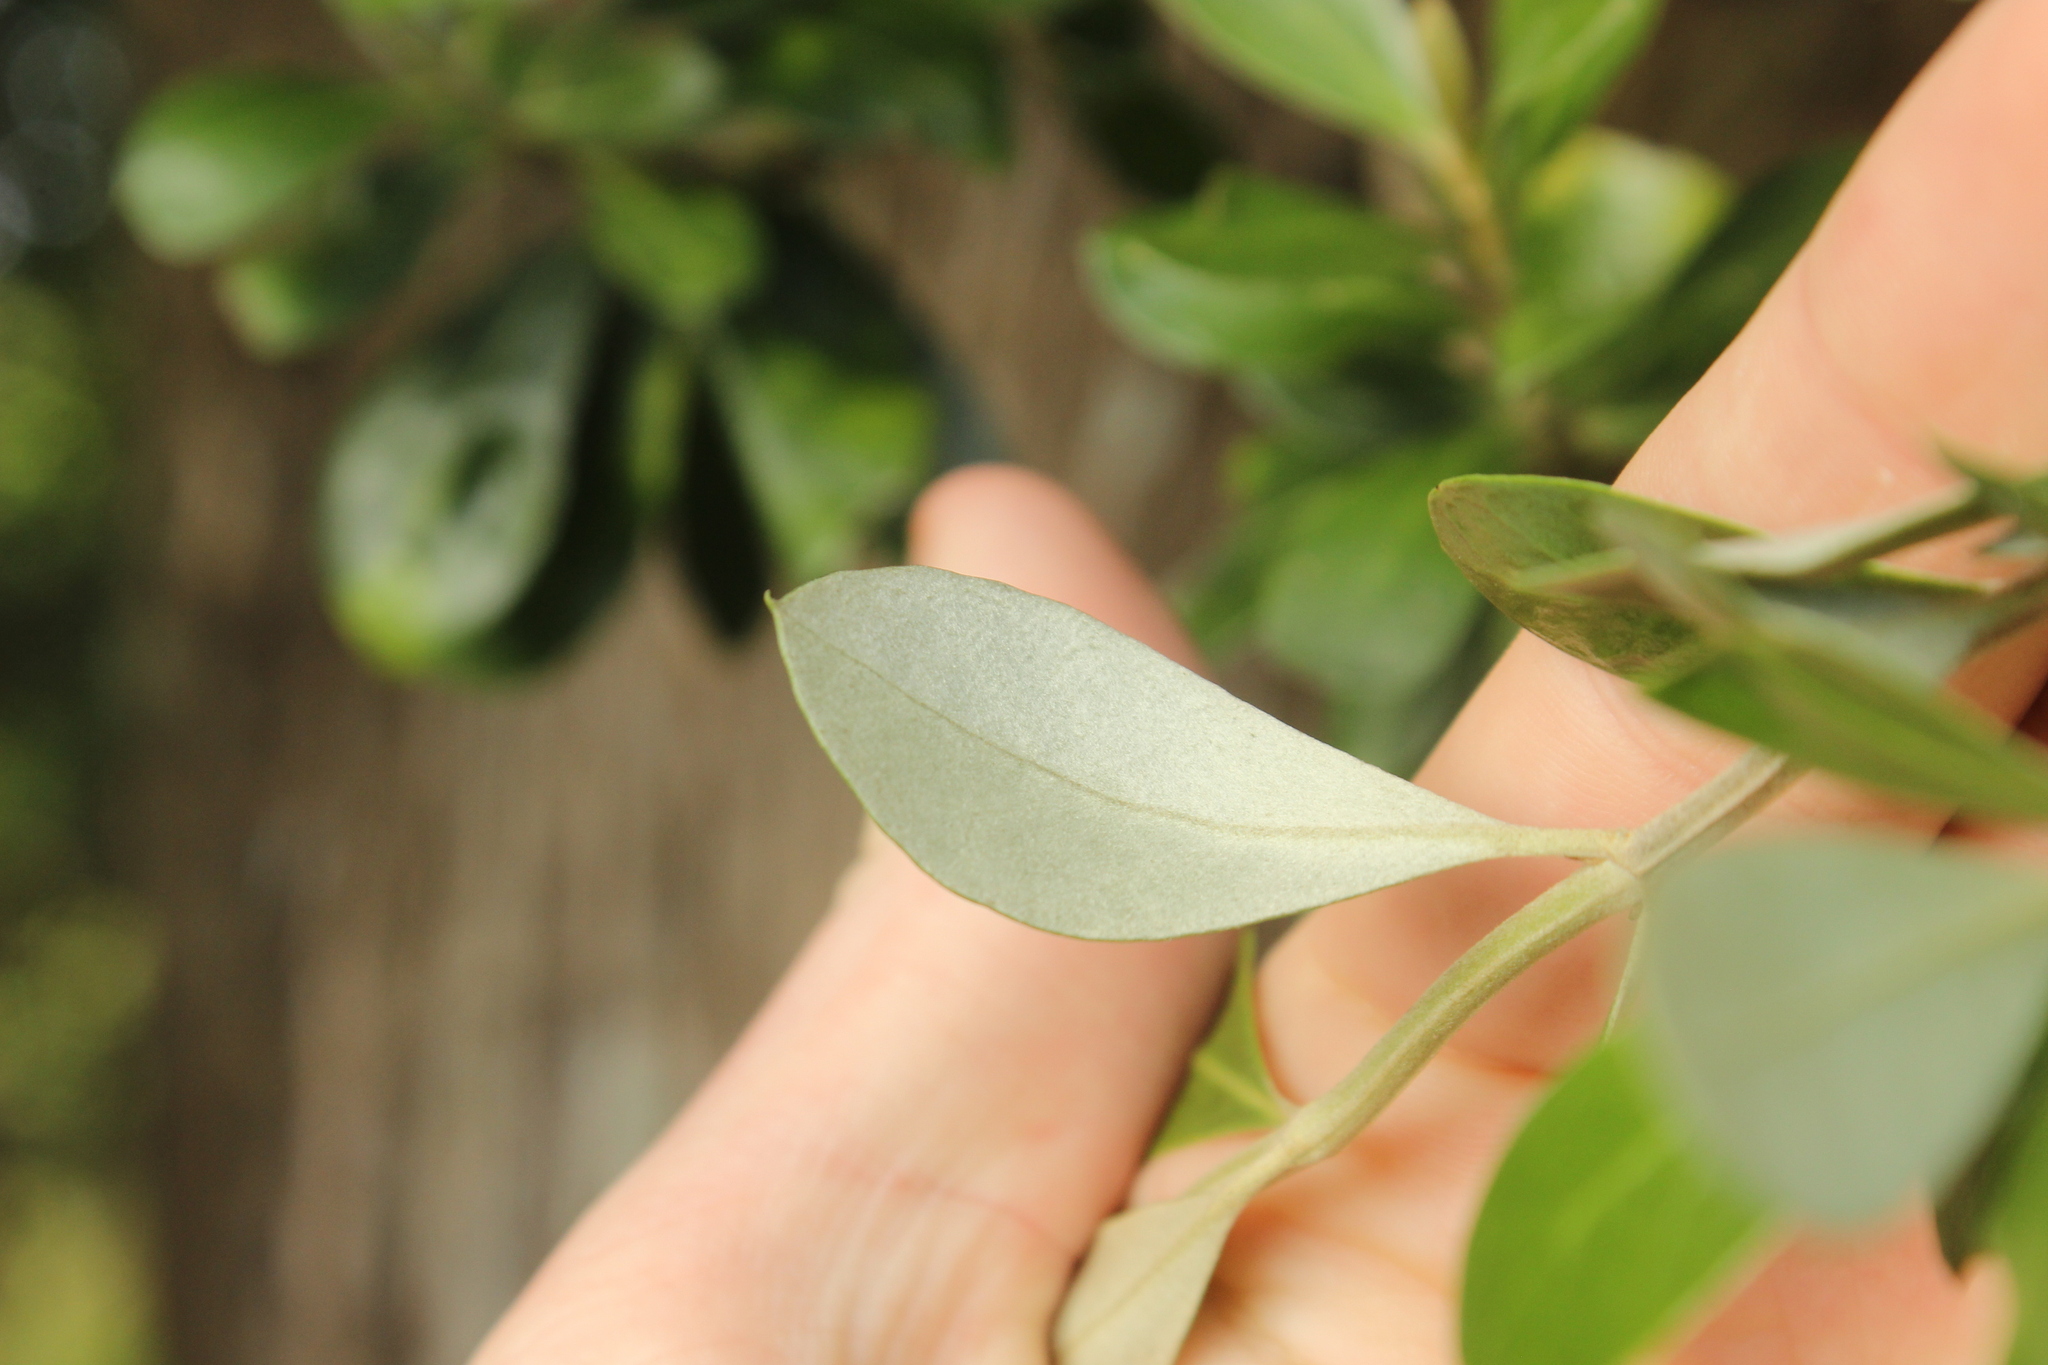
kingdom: Plantae
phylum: Tracheophyta
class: Magnoliopsida
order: Asterales
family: Asteraceae
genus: Olearia
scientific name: Olearia telmatica
